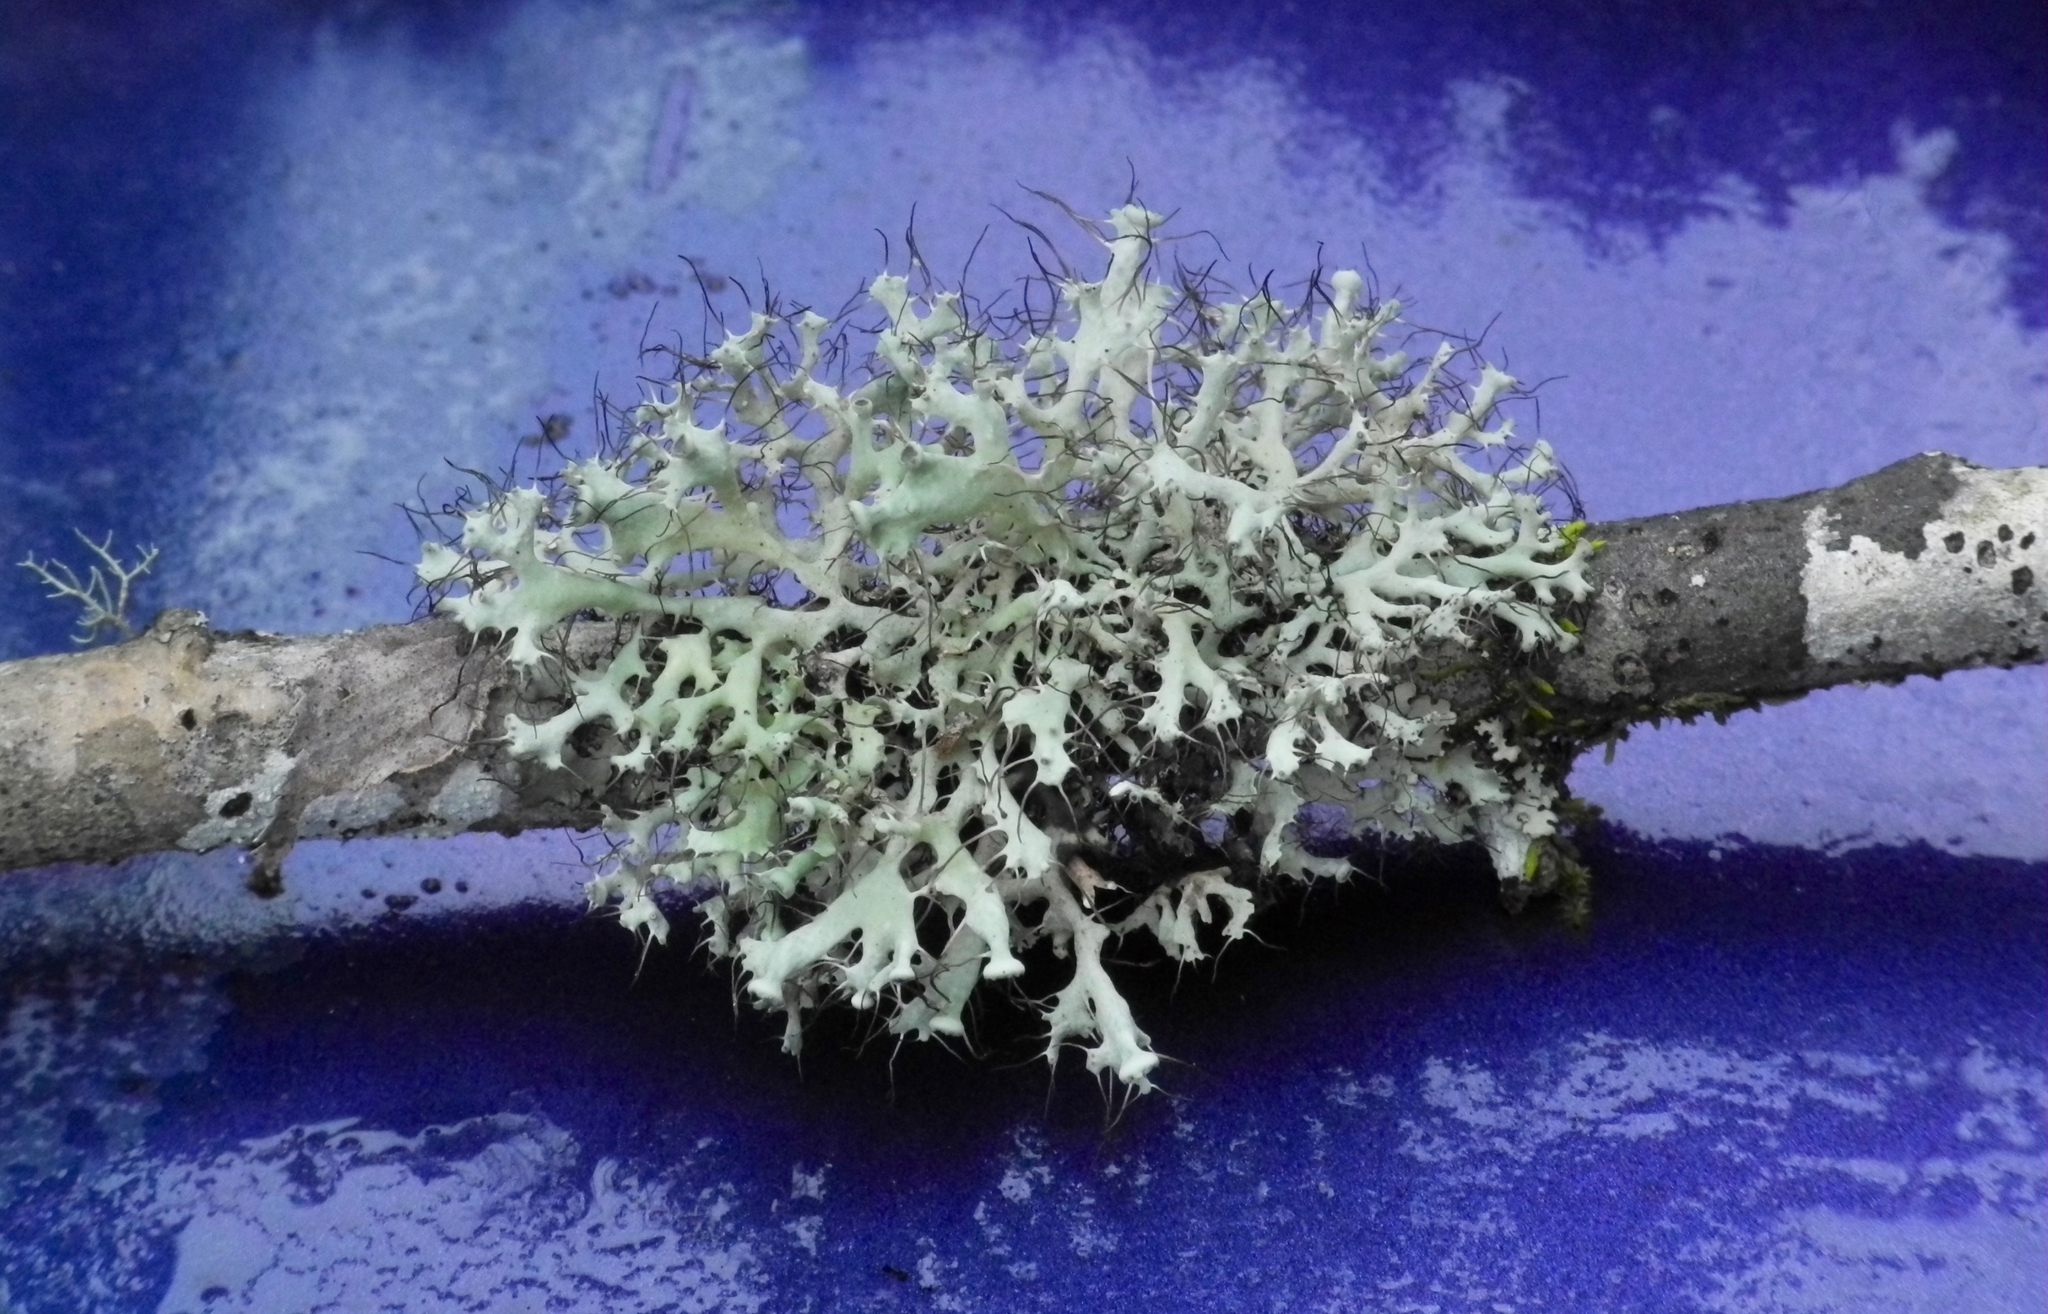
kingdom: Fungi
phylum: Ascomycota
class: Lecanoromycetes
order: Caliciales
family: Physciaceae
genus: Heterodermia
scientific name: Heterodermia echinata
